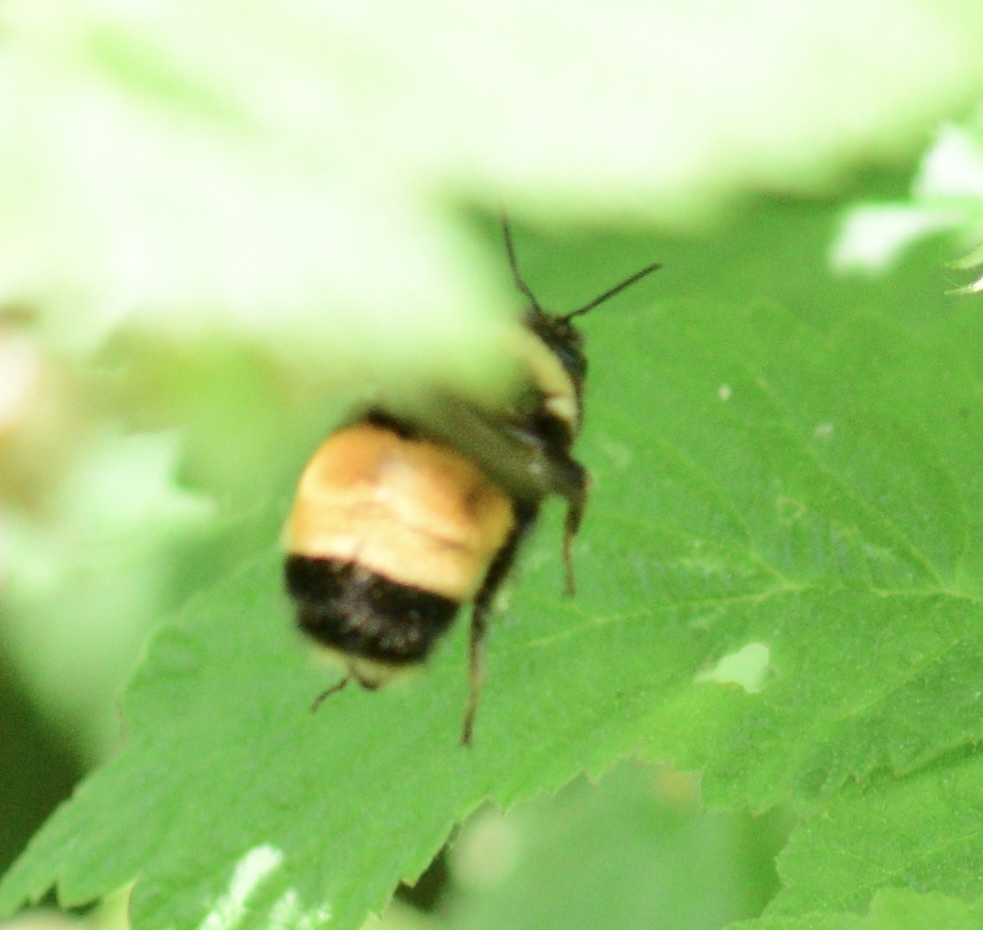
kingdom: Animalia
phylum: Arthropoda
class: Insecta
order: Hymenoptera
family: Apidae
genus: Bombus
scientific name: Bombus terricola
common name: Yellow-banded bumble bee
